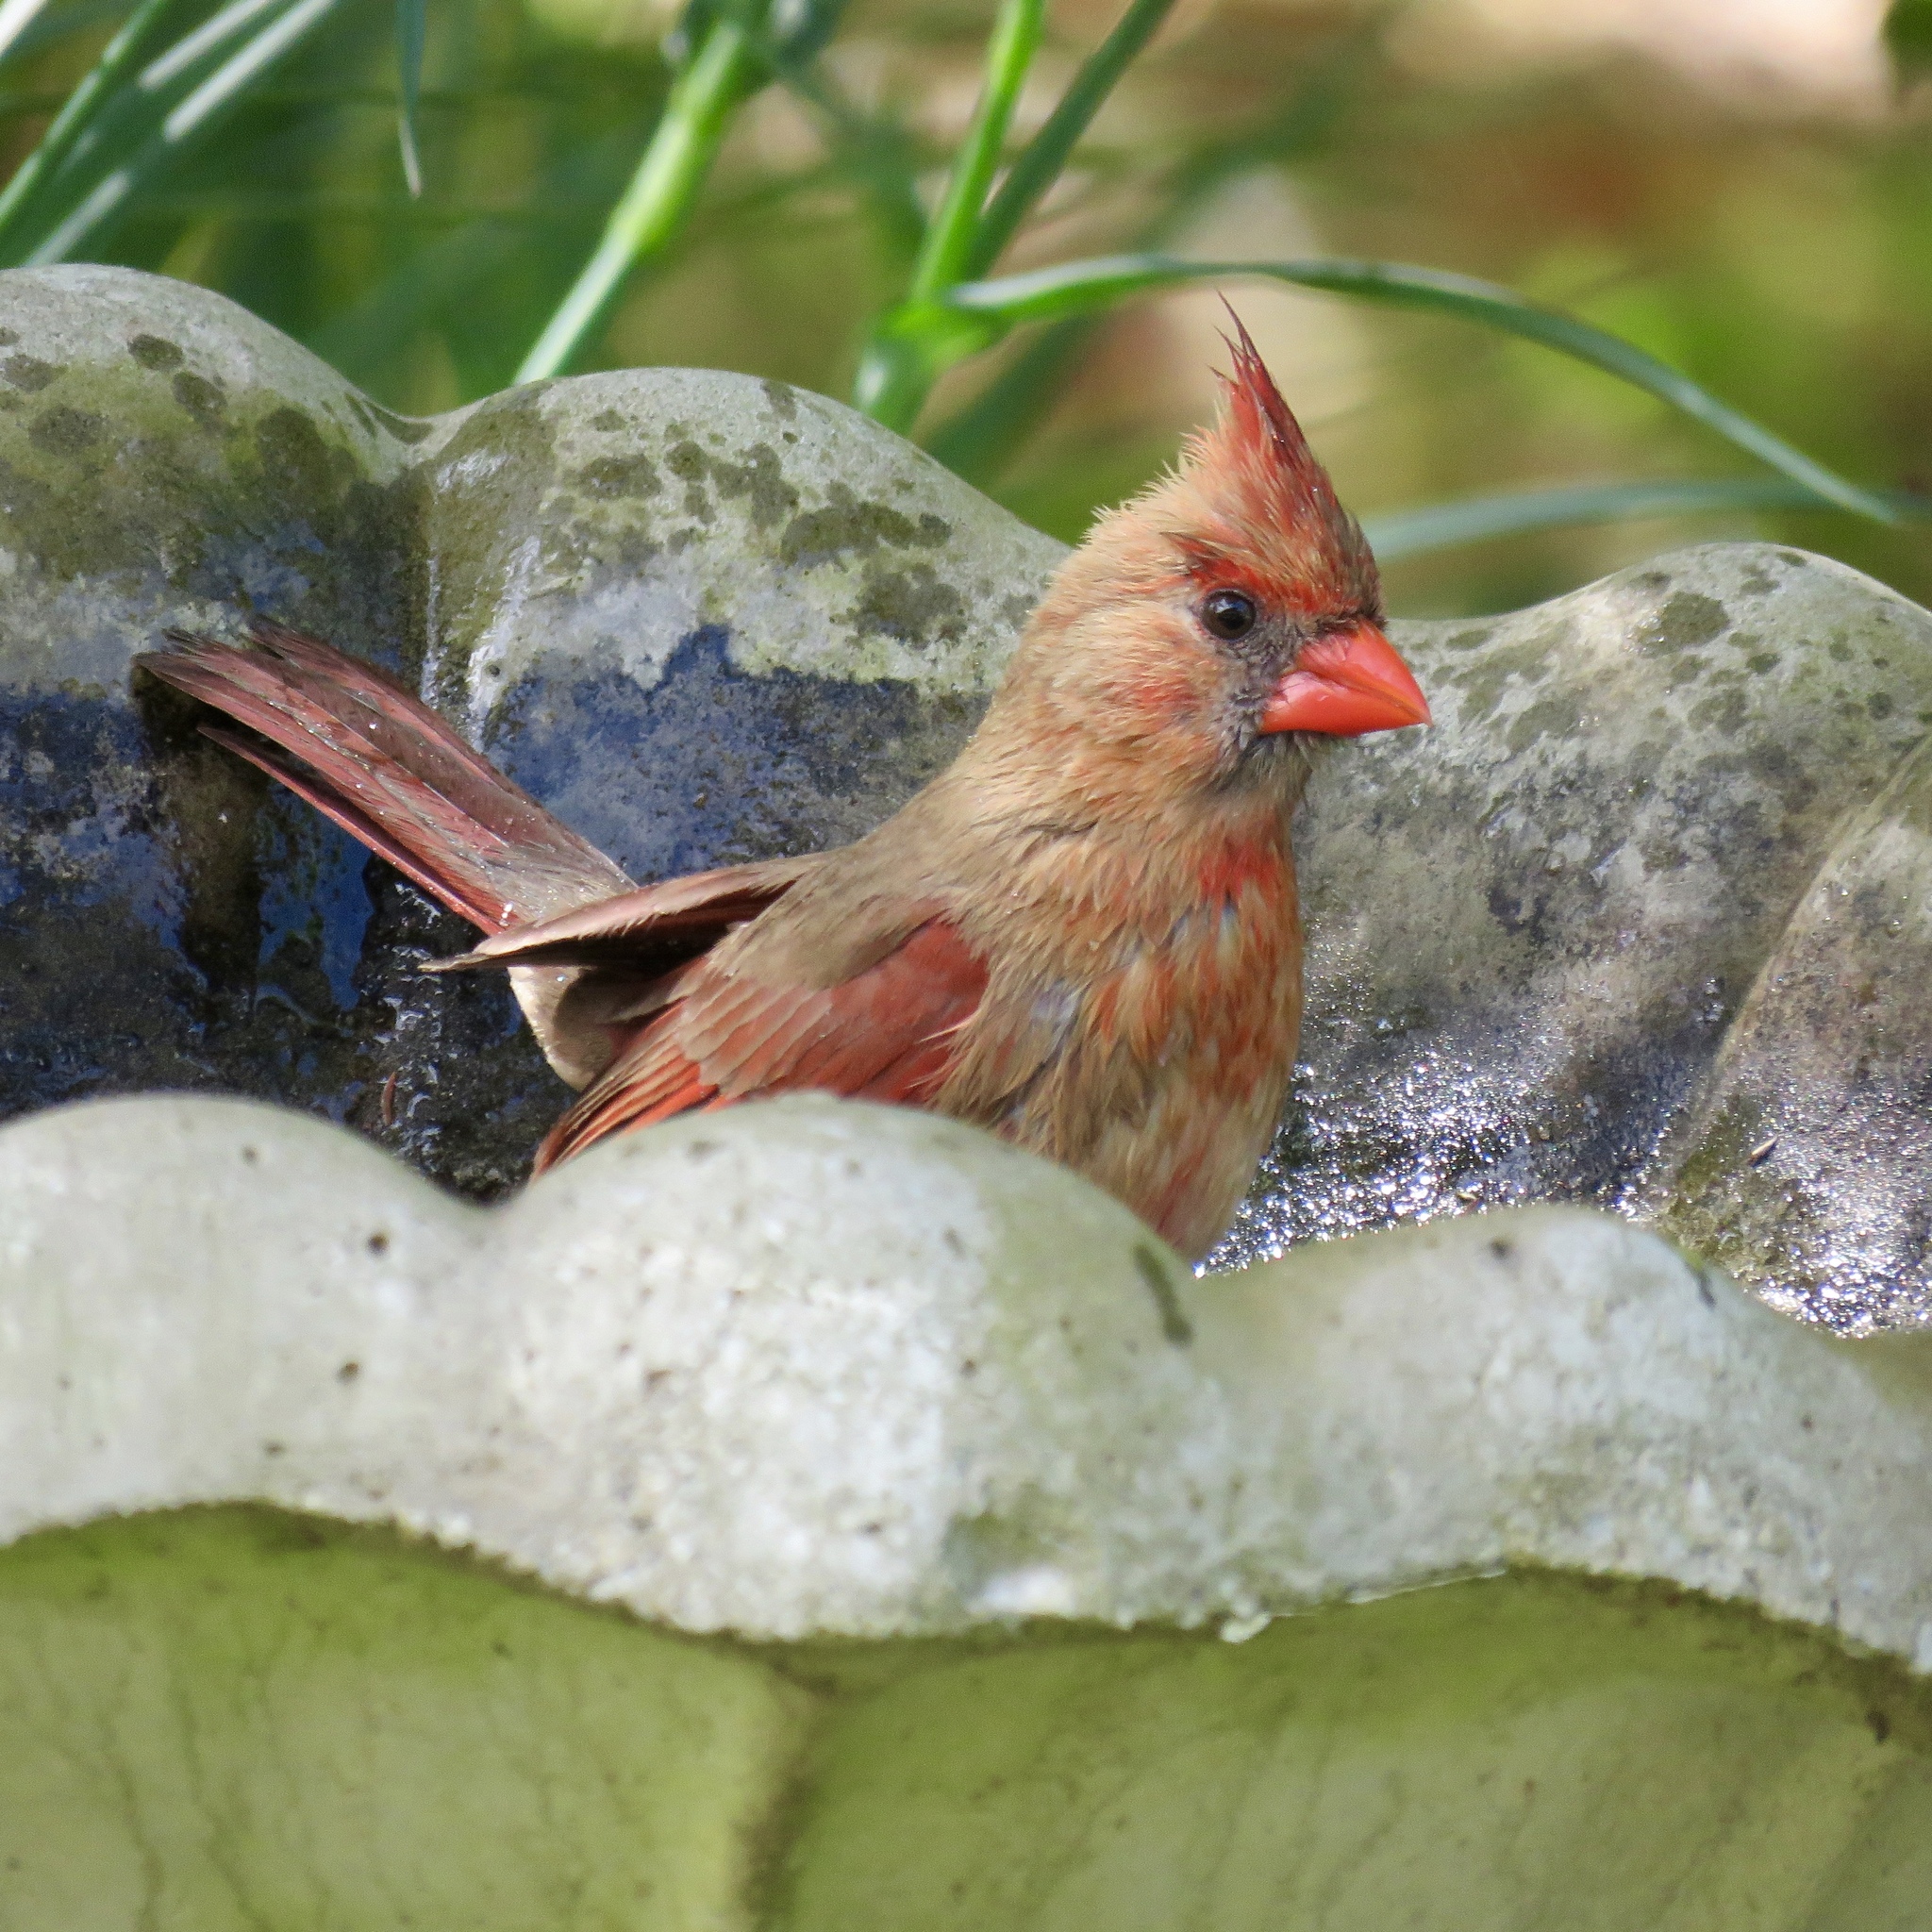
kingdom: Animalia
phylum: Chordata
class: Aves
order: Passeriformes
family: Cardinalidae
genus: Cardinalis
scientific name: Cardinalis cardinalis
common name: Northern cardinal
